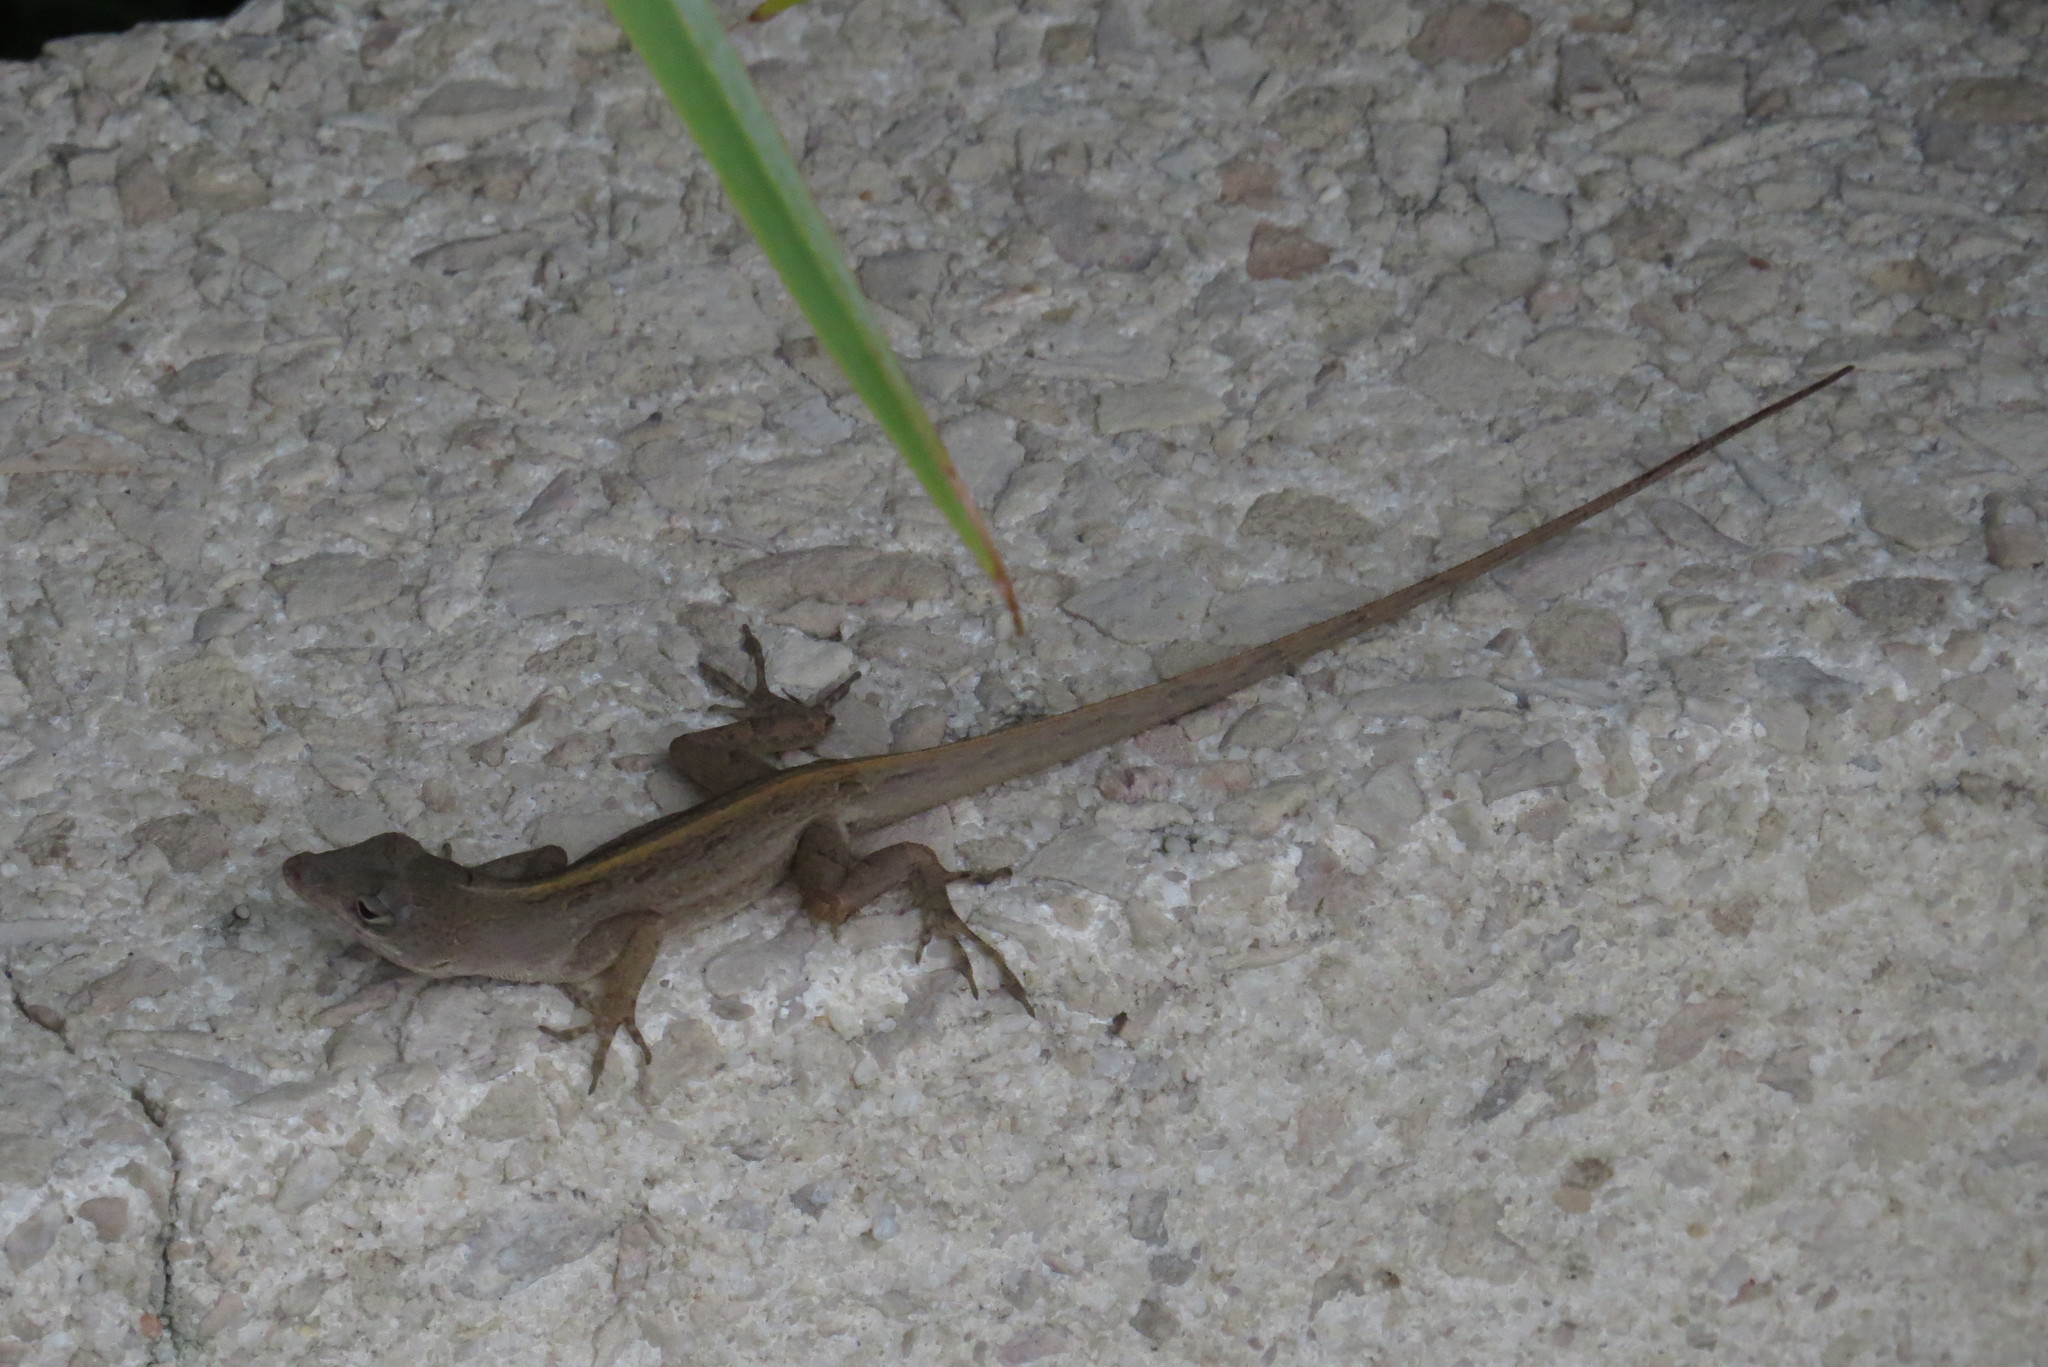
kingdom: Animalia
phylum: Chordata
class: Squamata
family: Dactyloidae
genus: Anolis
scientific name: Anolis sagrei
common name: Brown anole
